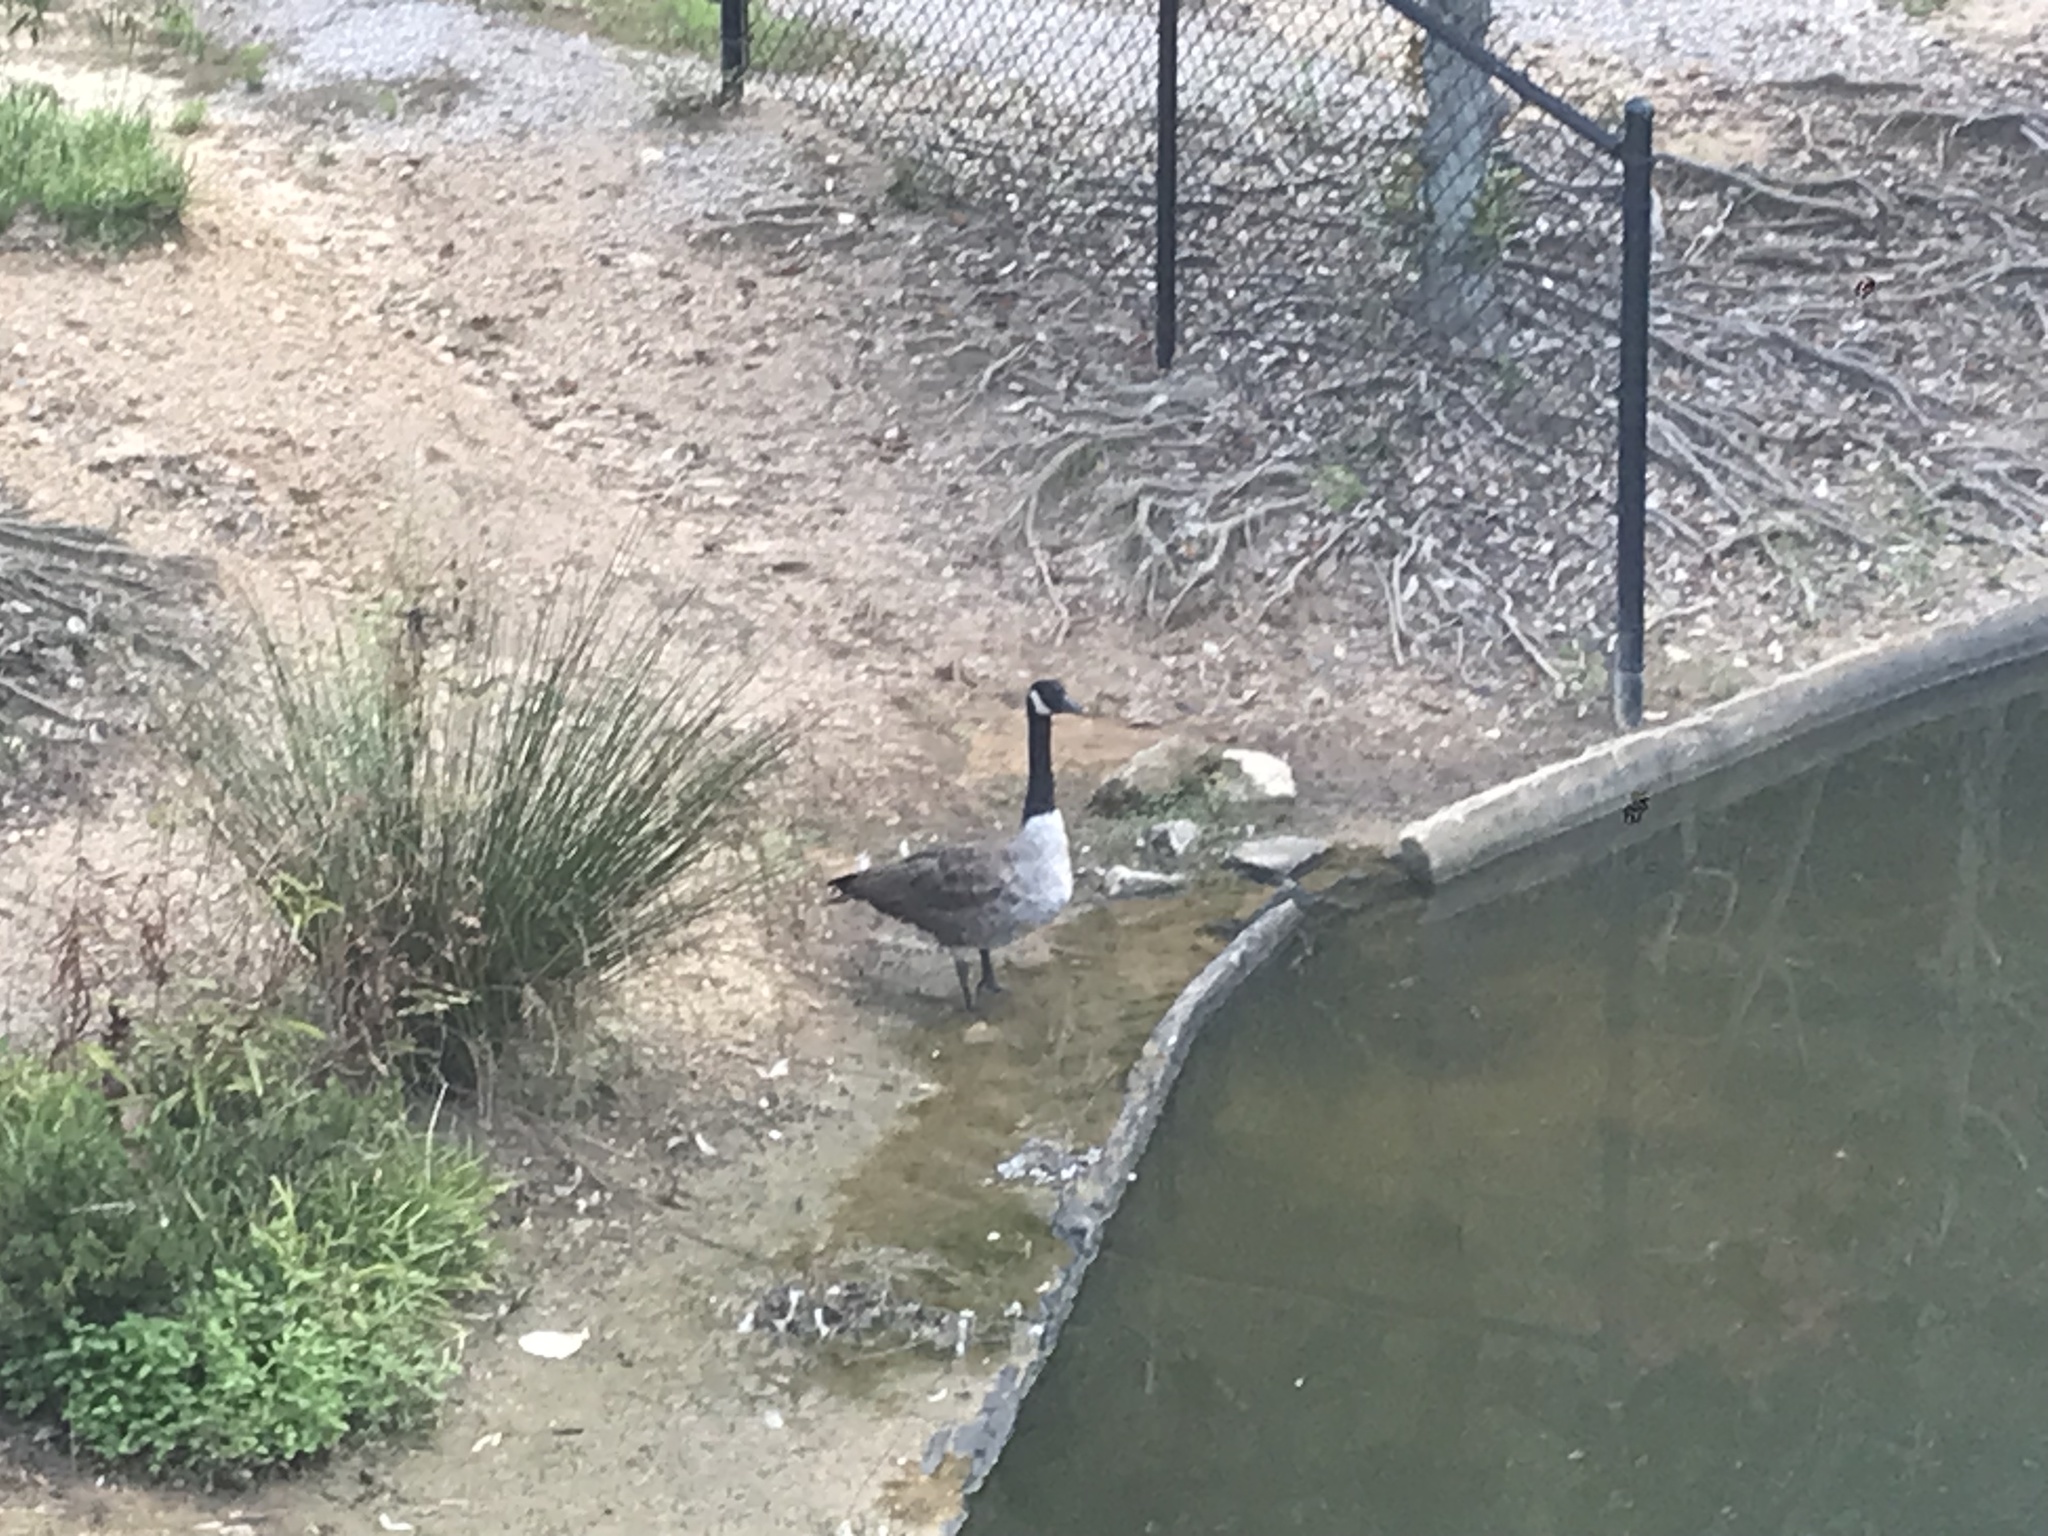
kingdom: Animalia
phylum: Chordata
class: Aves
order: Anseriformes
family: Anatidae
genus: Branta
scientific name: Branta canadensis
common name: Canada goose
